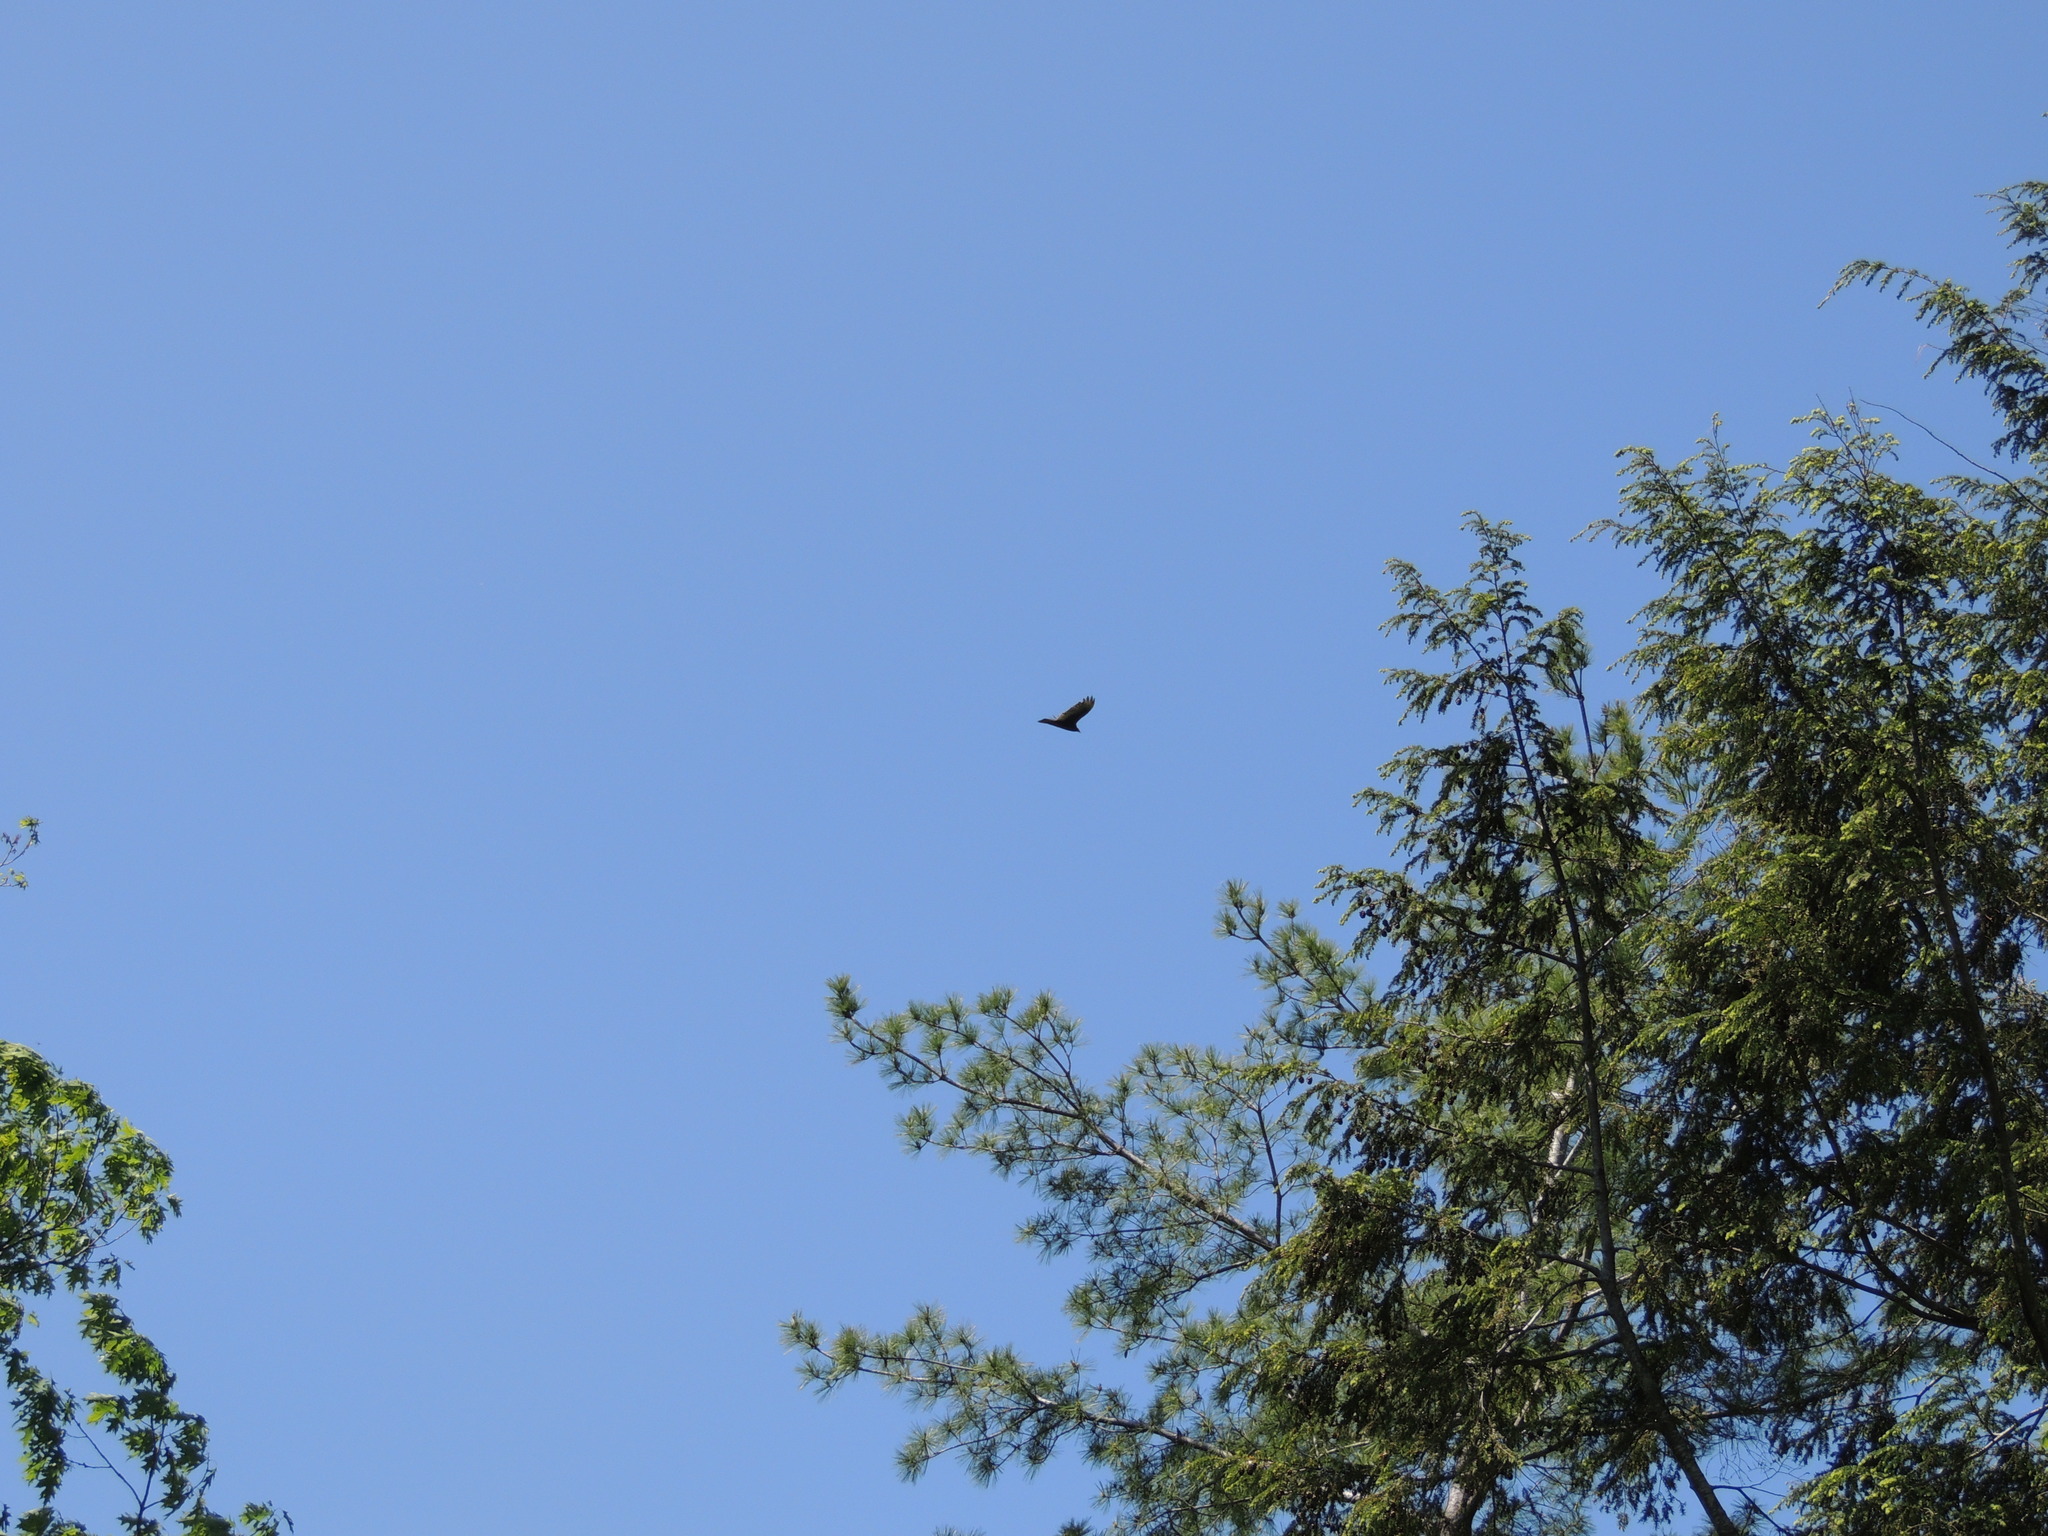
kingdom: Animalia
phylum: Chordata
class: Aves
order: Accipitriformes
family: Cathartidae
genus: Cathartes
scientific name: Cathartes aura
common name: Turkey vulture
